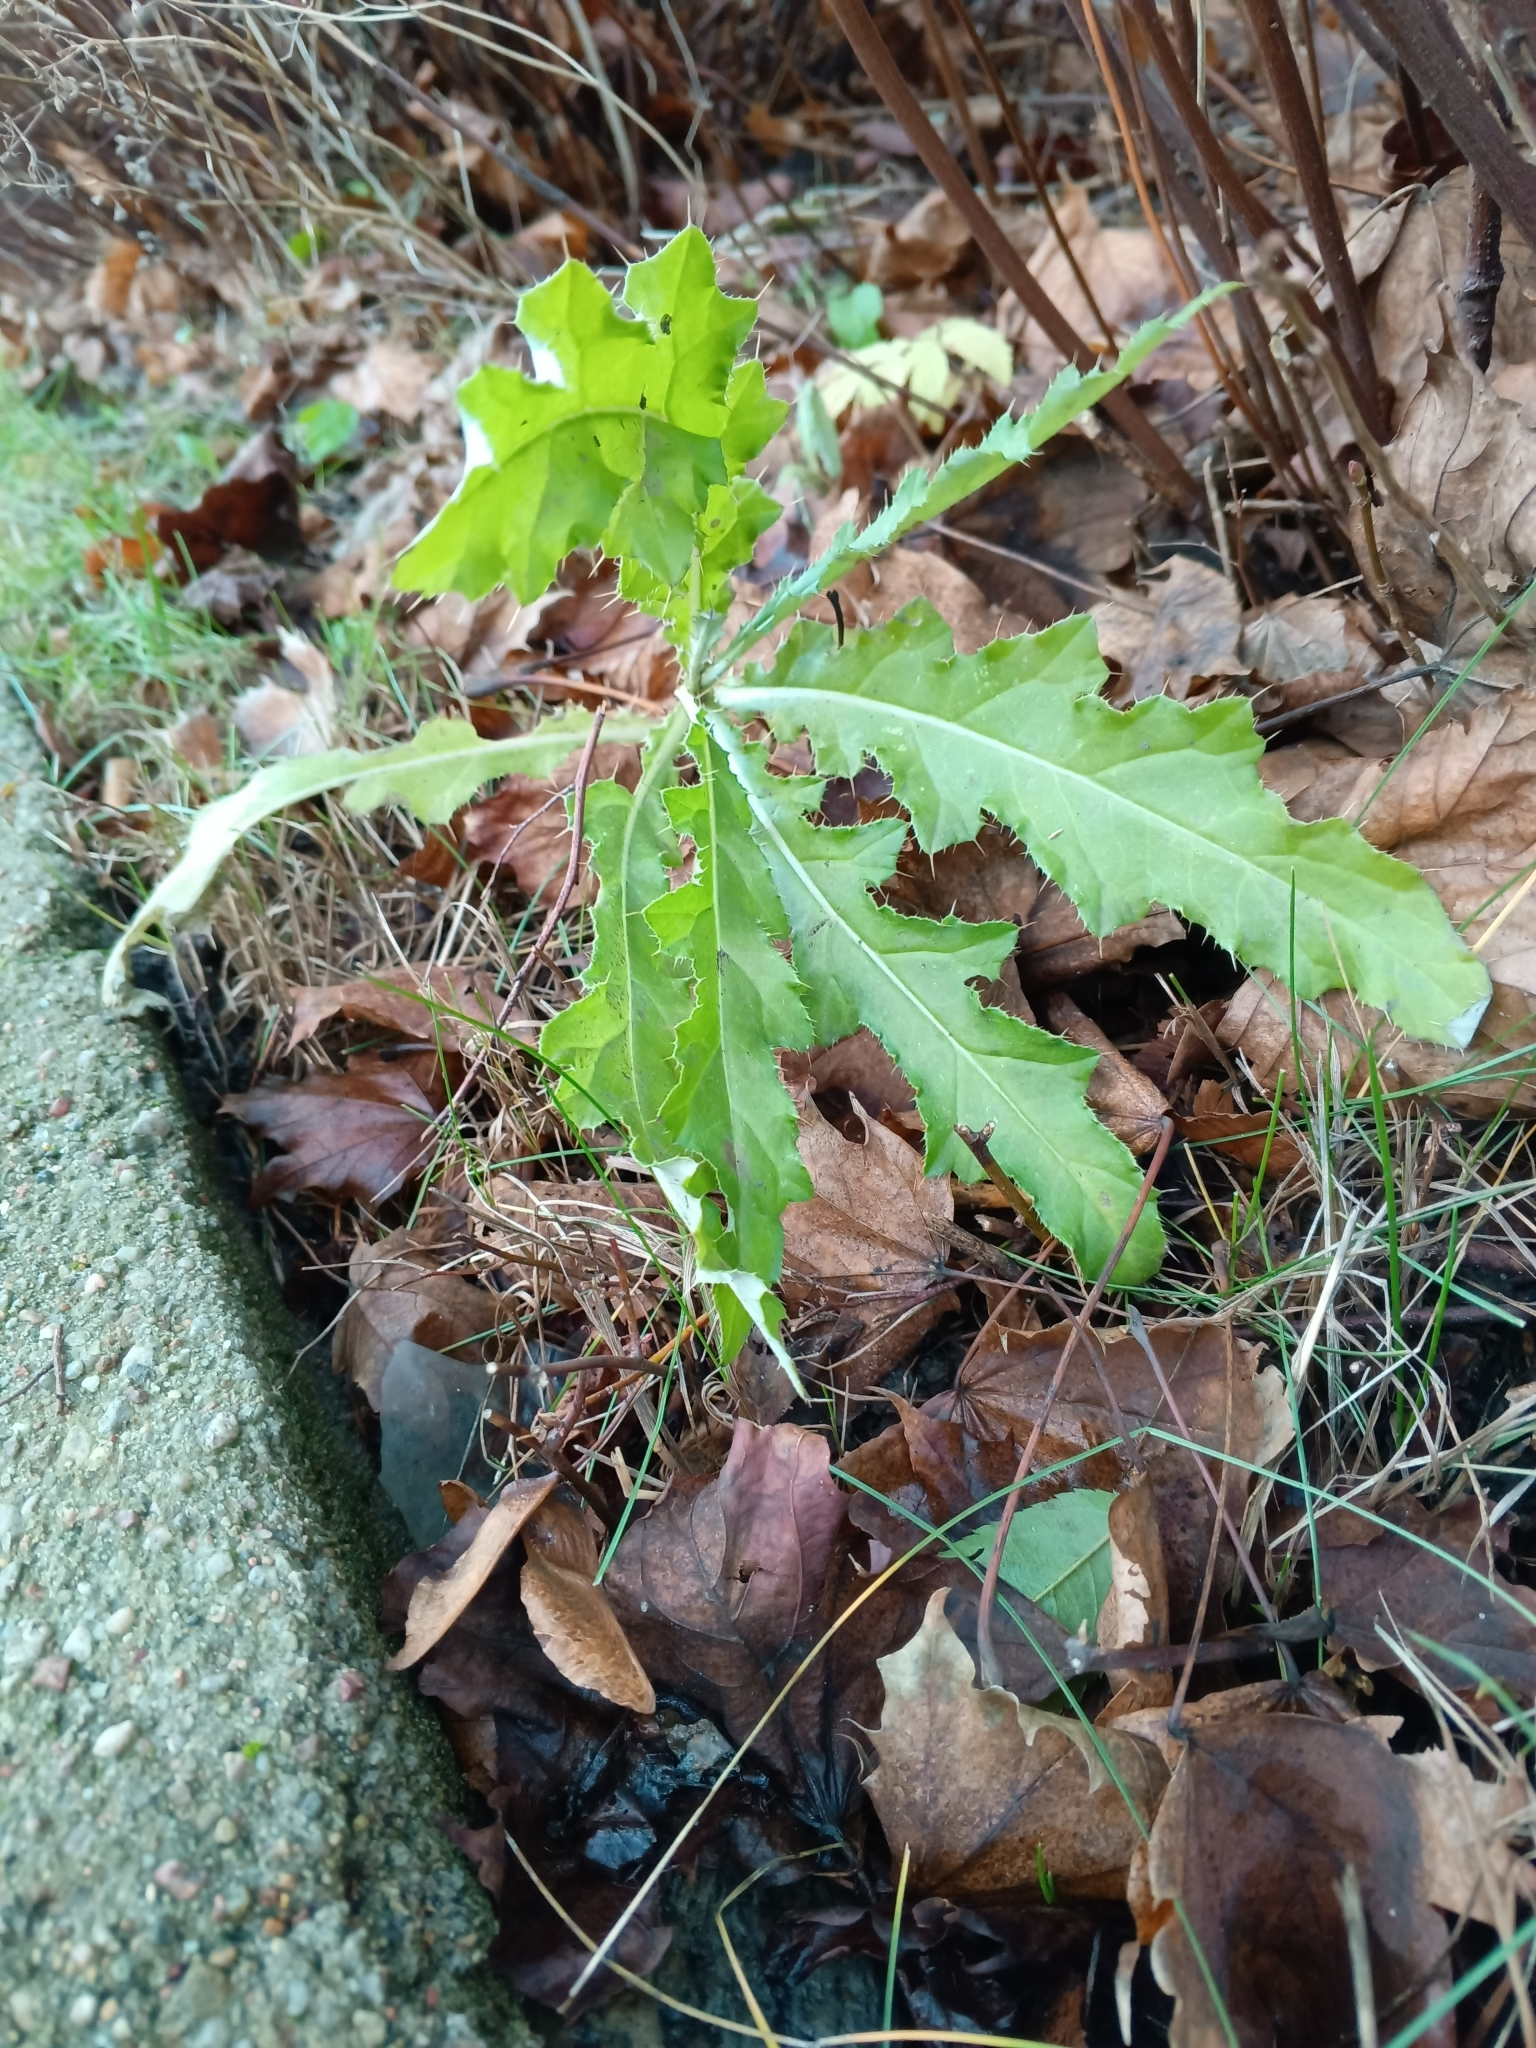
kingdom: Plantae
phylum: Tracheophyta
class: Magnoliopsida
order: Asterales
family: Asteraceae
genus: Cirsium
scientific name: Cirsium arvense
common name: Creeping thistle
